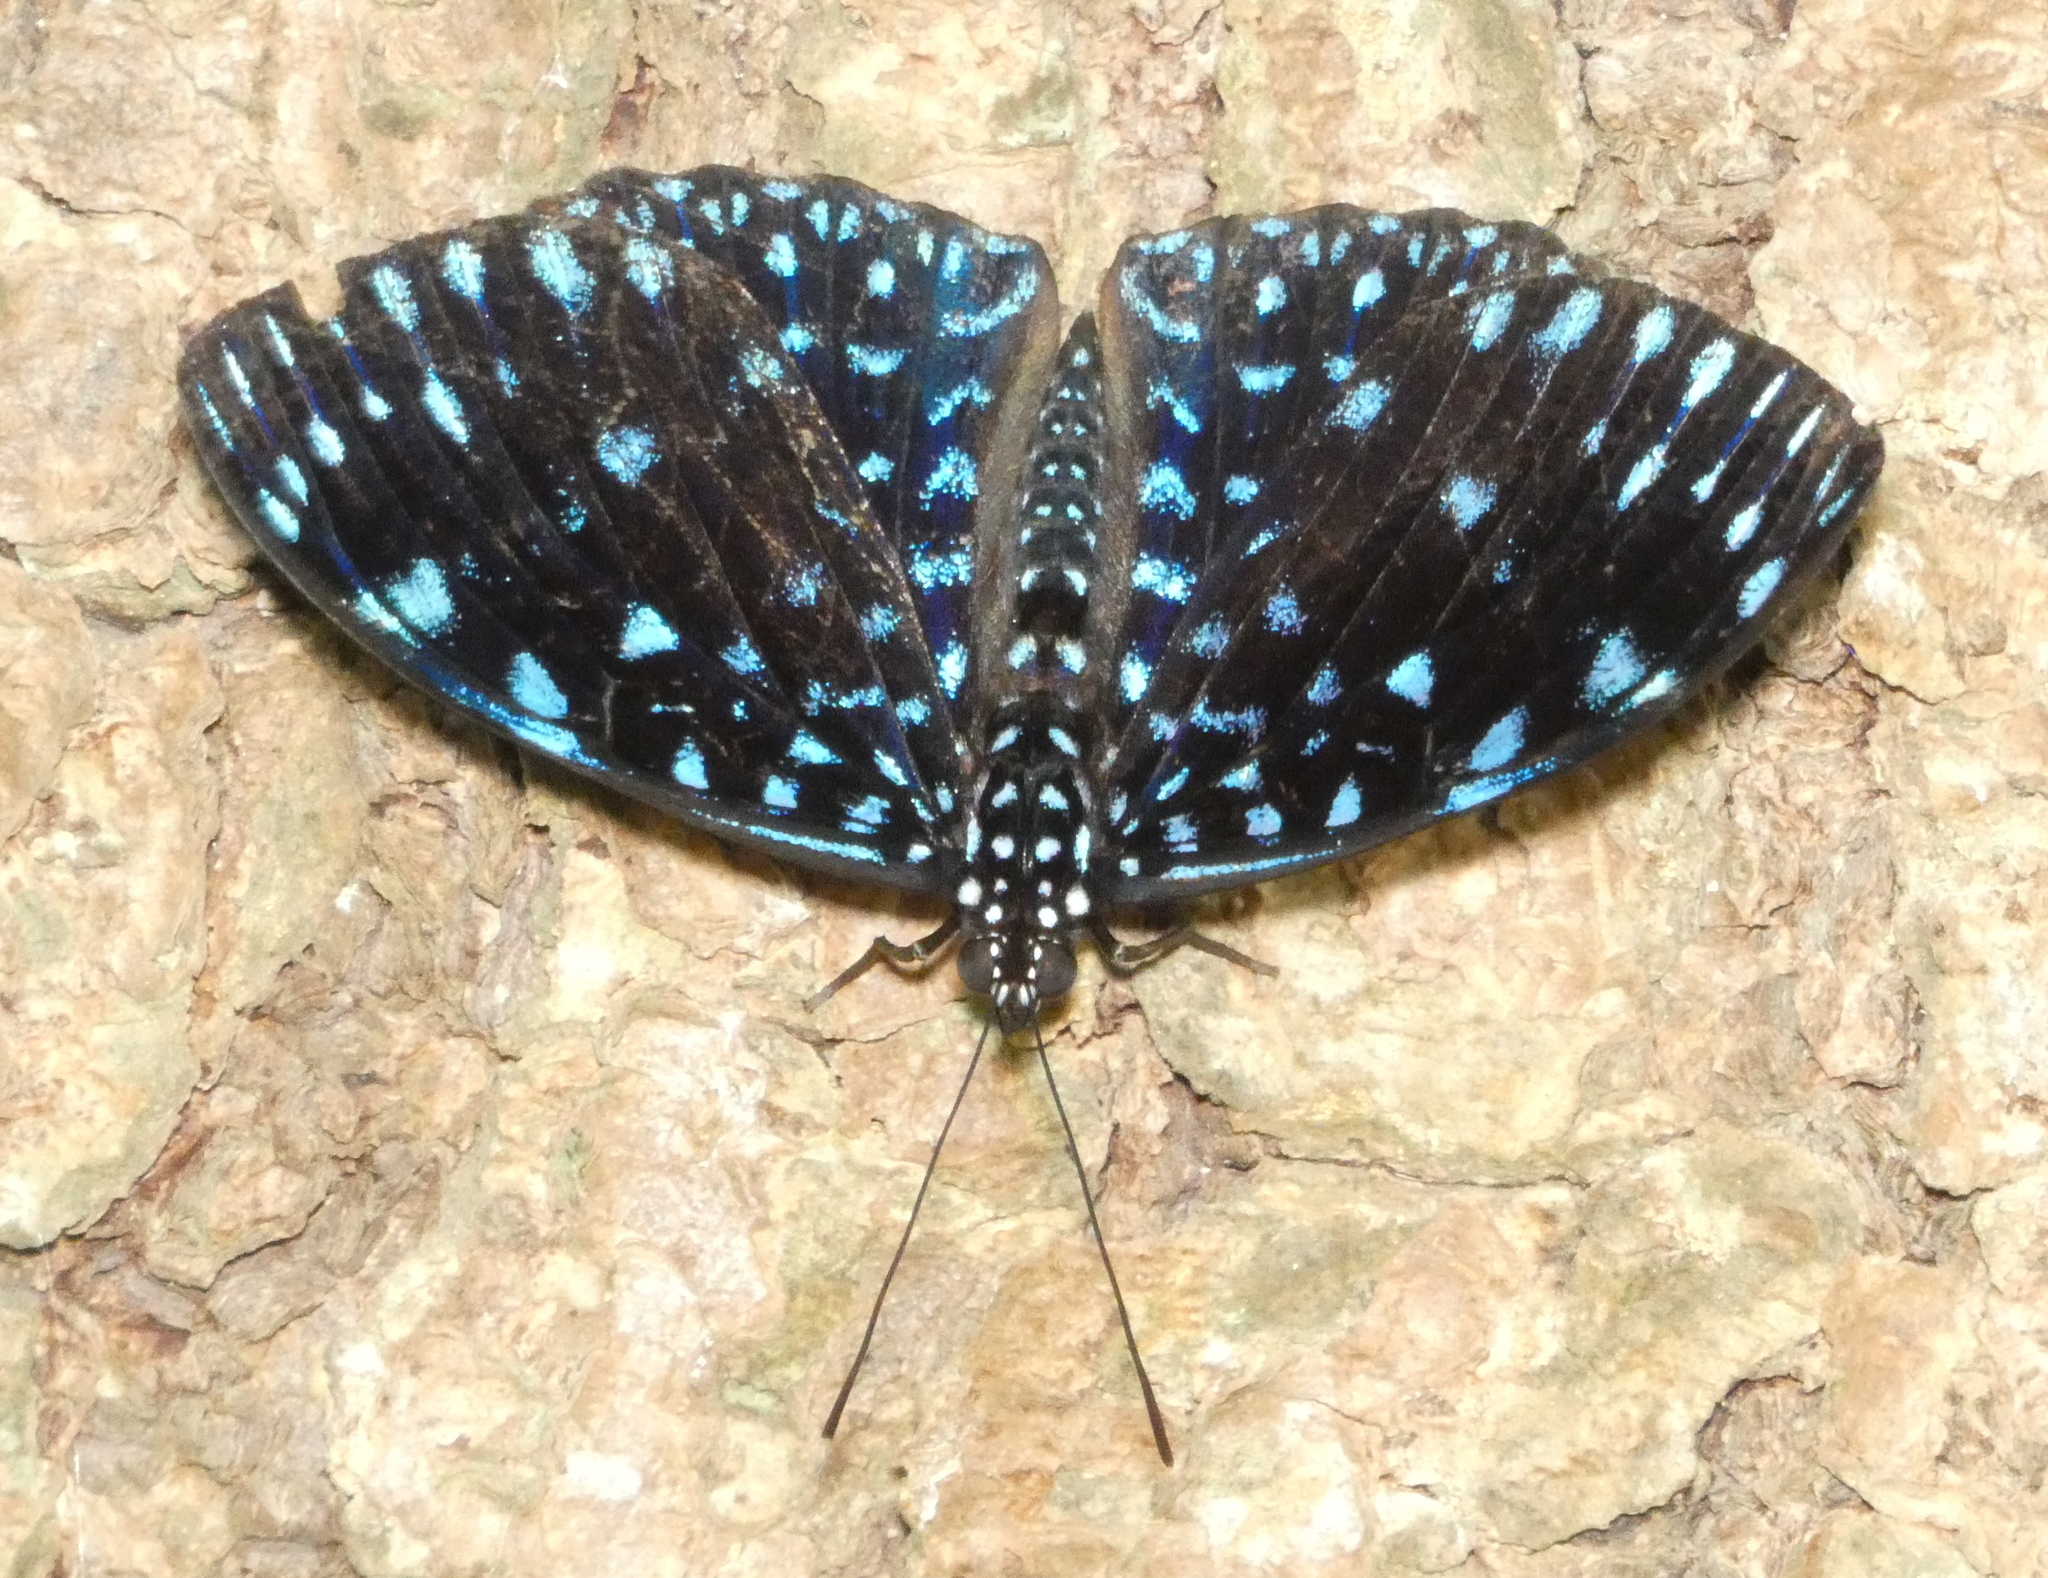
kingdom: Animalia
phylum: Arthropoda
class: Insecta
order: Lepidoptera
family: Nymphalidae
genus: Hamadryas
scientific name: Hamadryas laodamia
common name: Starry night cracker
